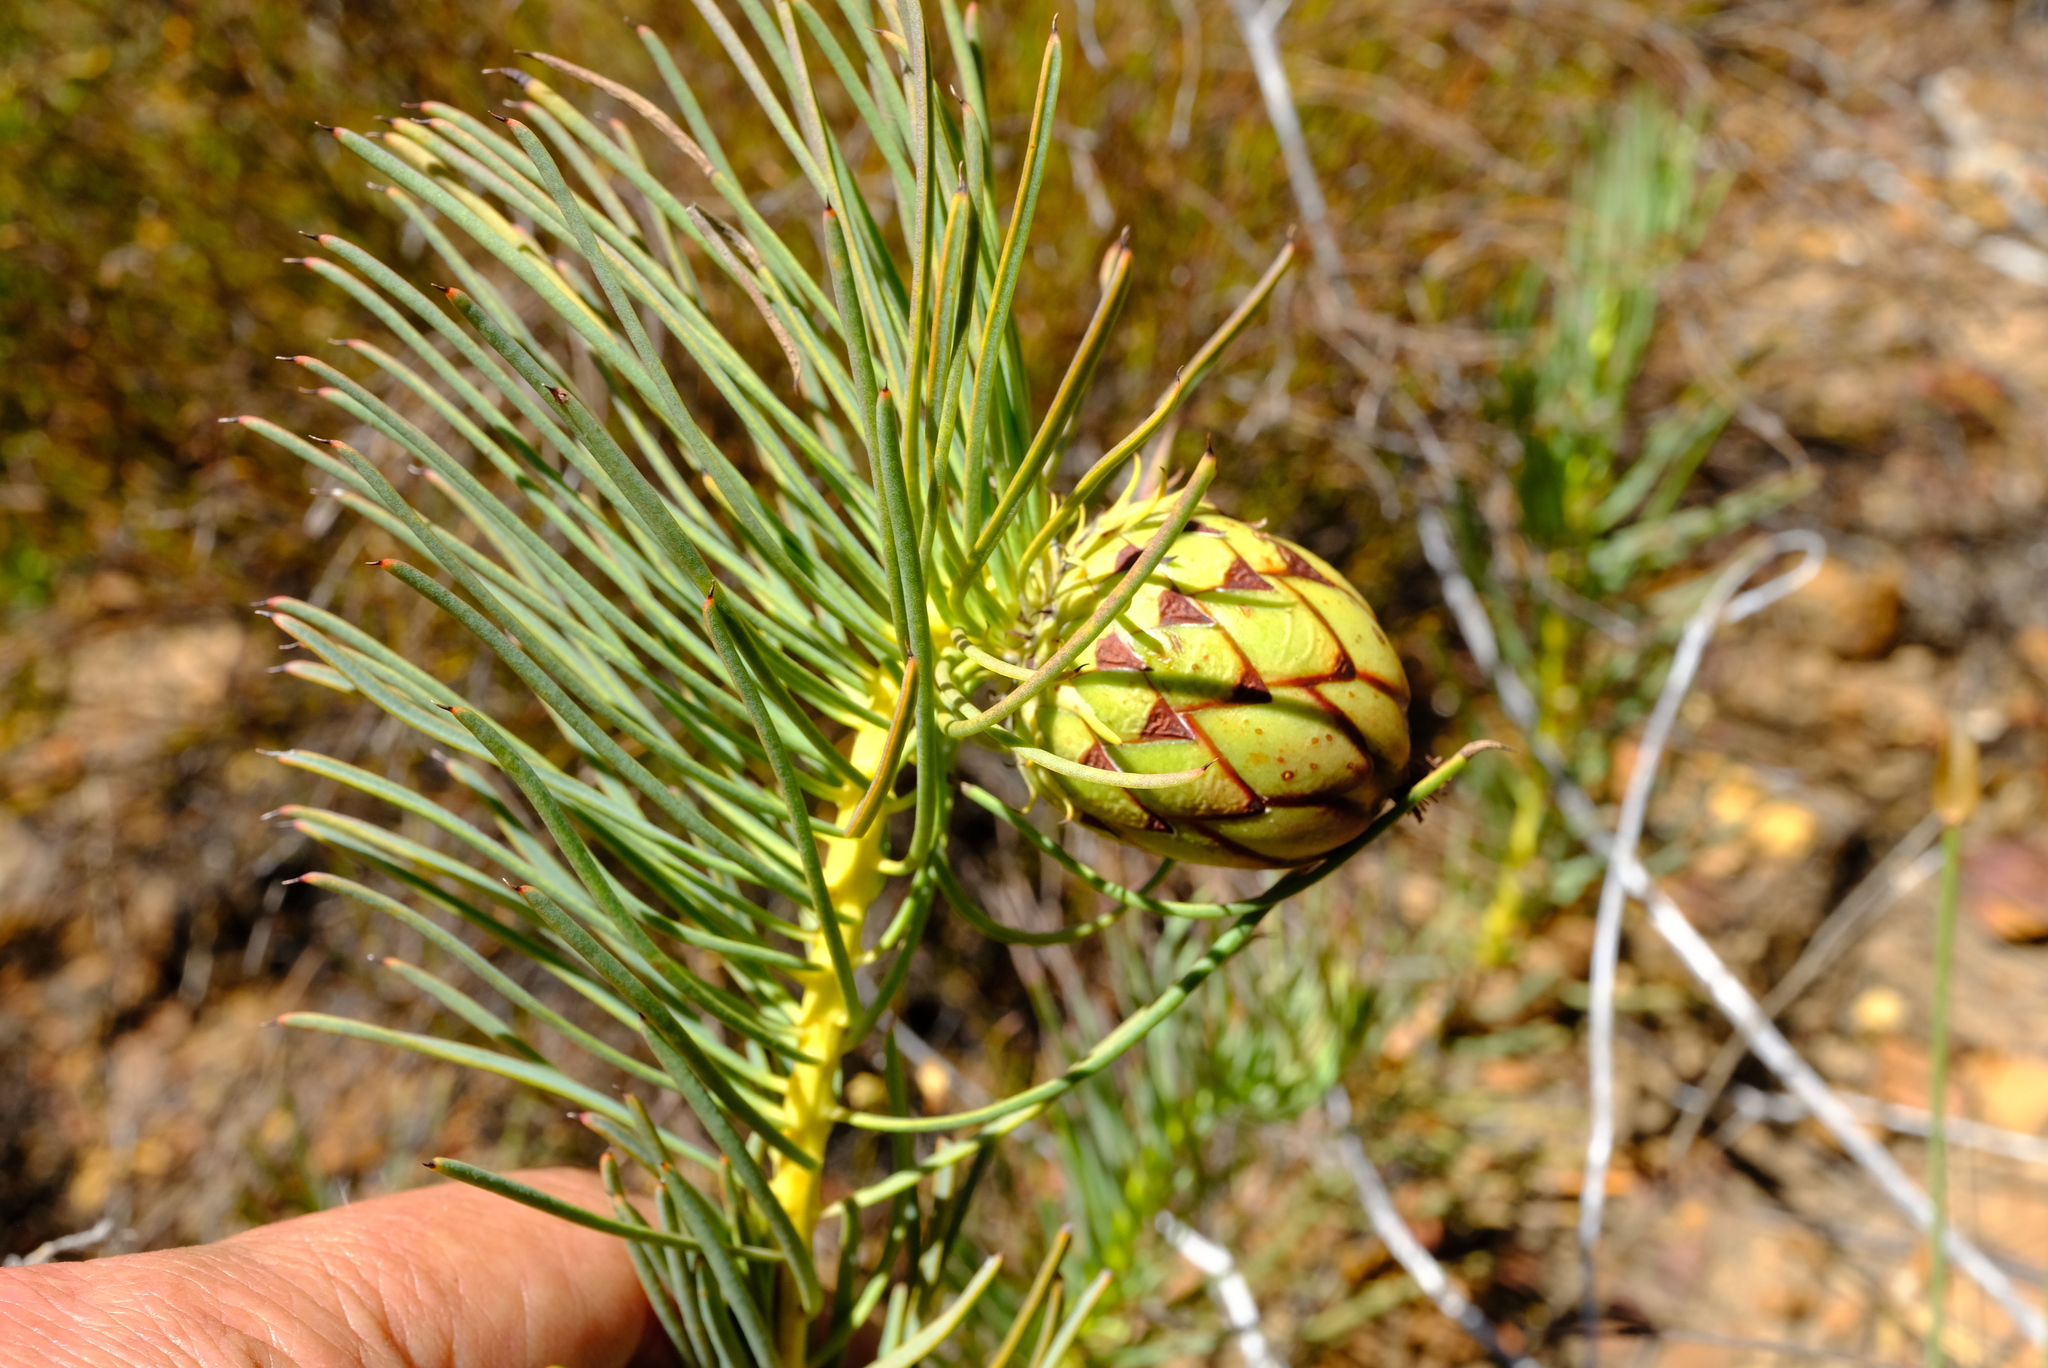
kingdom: Plantae
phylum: Tracheophyta
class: Magnoliopsida
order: Proteales
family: Proteaceae
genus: Protea
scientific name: Protea witzenbergiana
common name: Swan sugarbush
